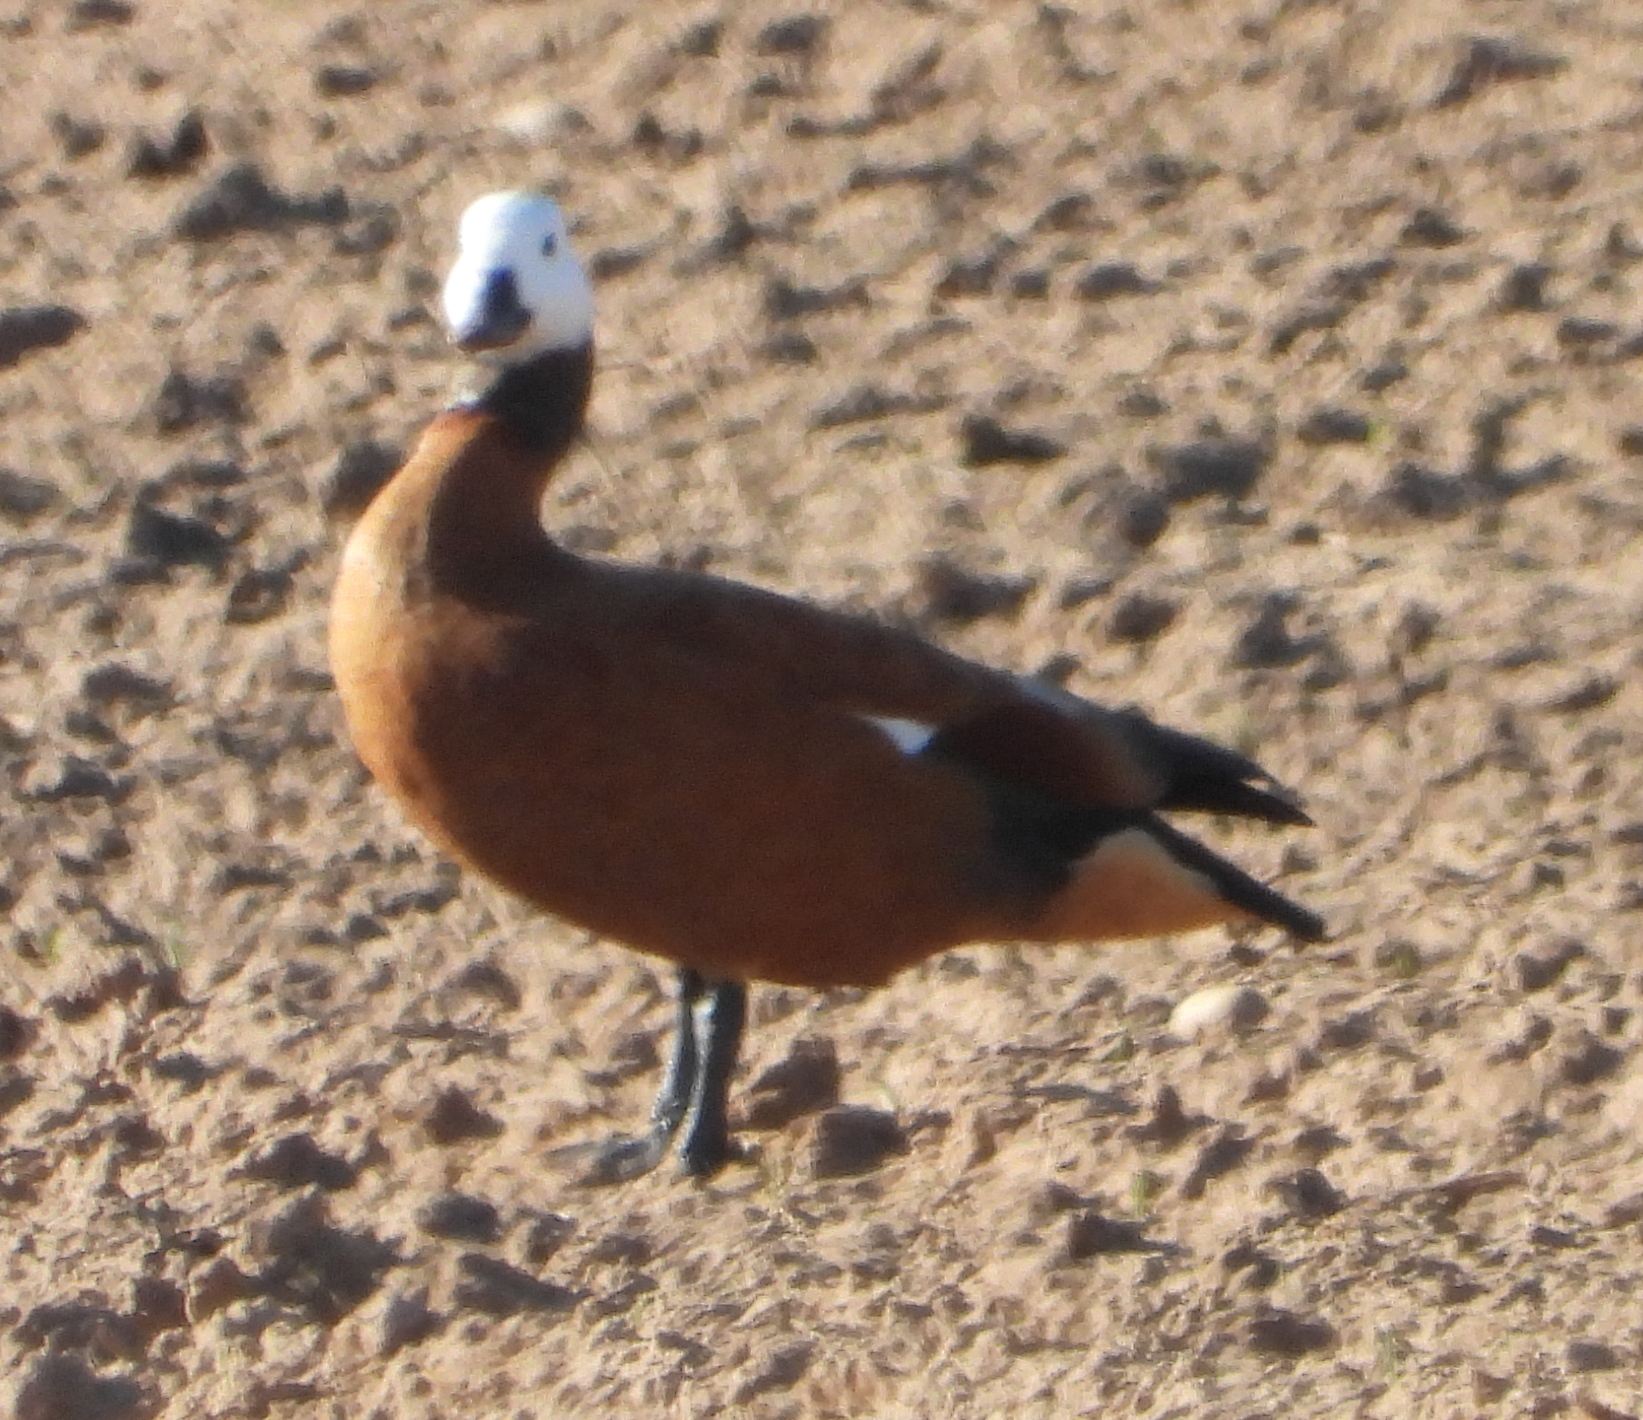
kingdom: Animalia
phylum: Chordata
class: Aves
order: Anseriformes
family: Anatidae
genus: Tadorna
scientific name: Tadorna cana
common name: South african shelduck
